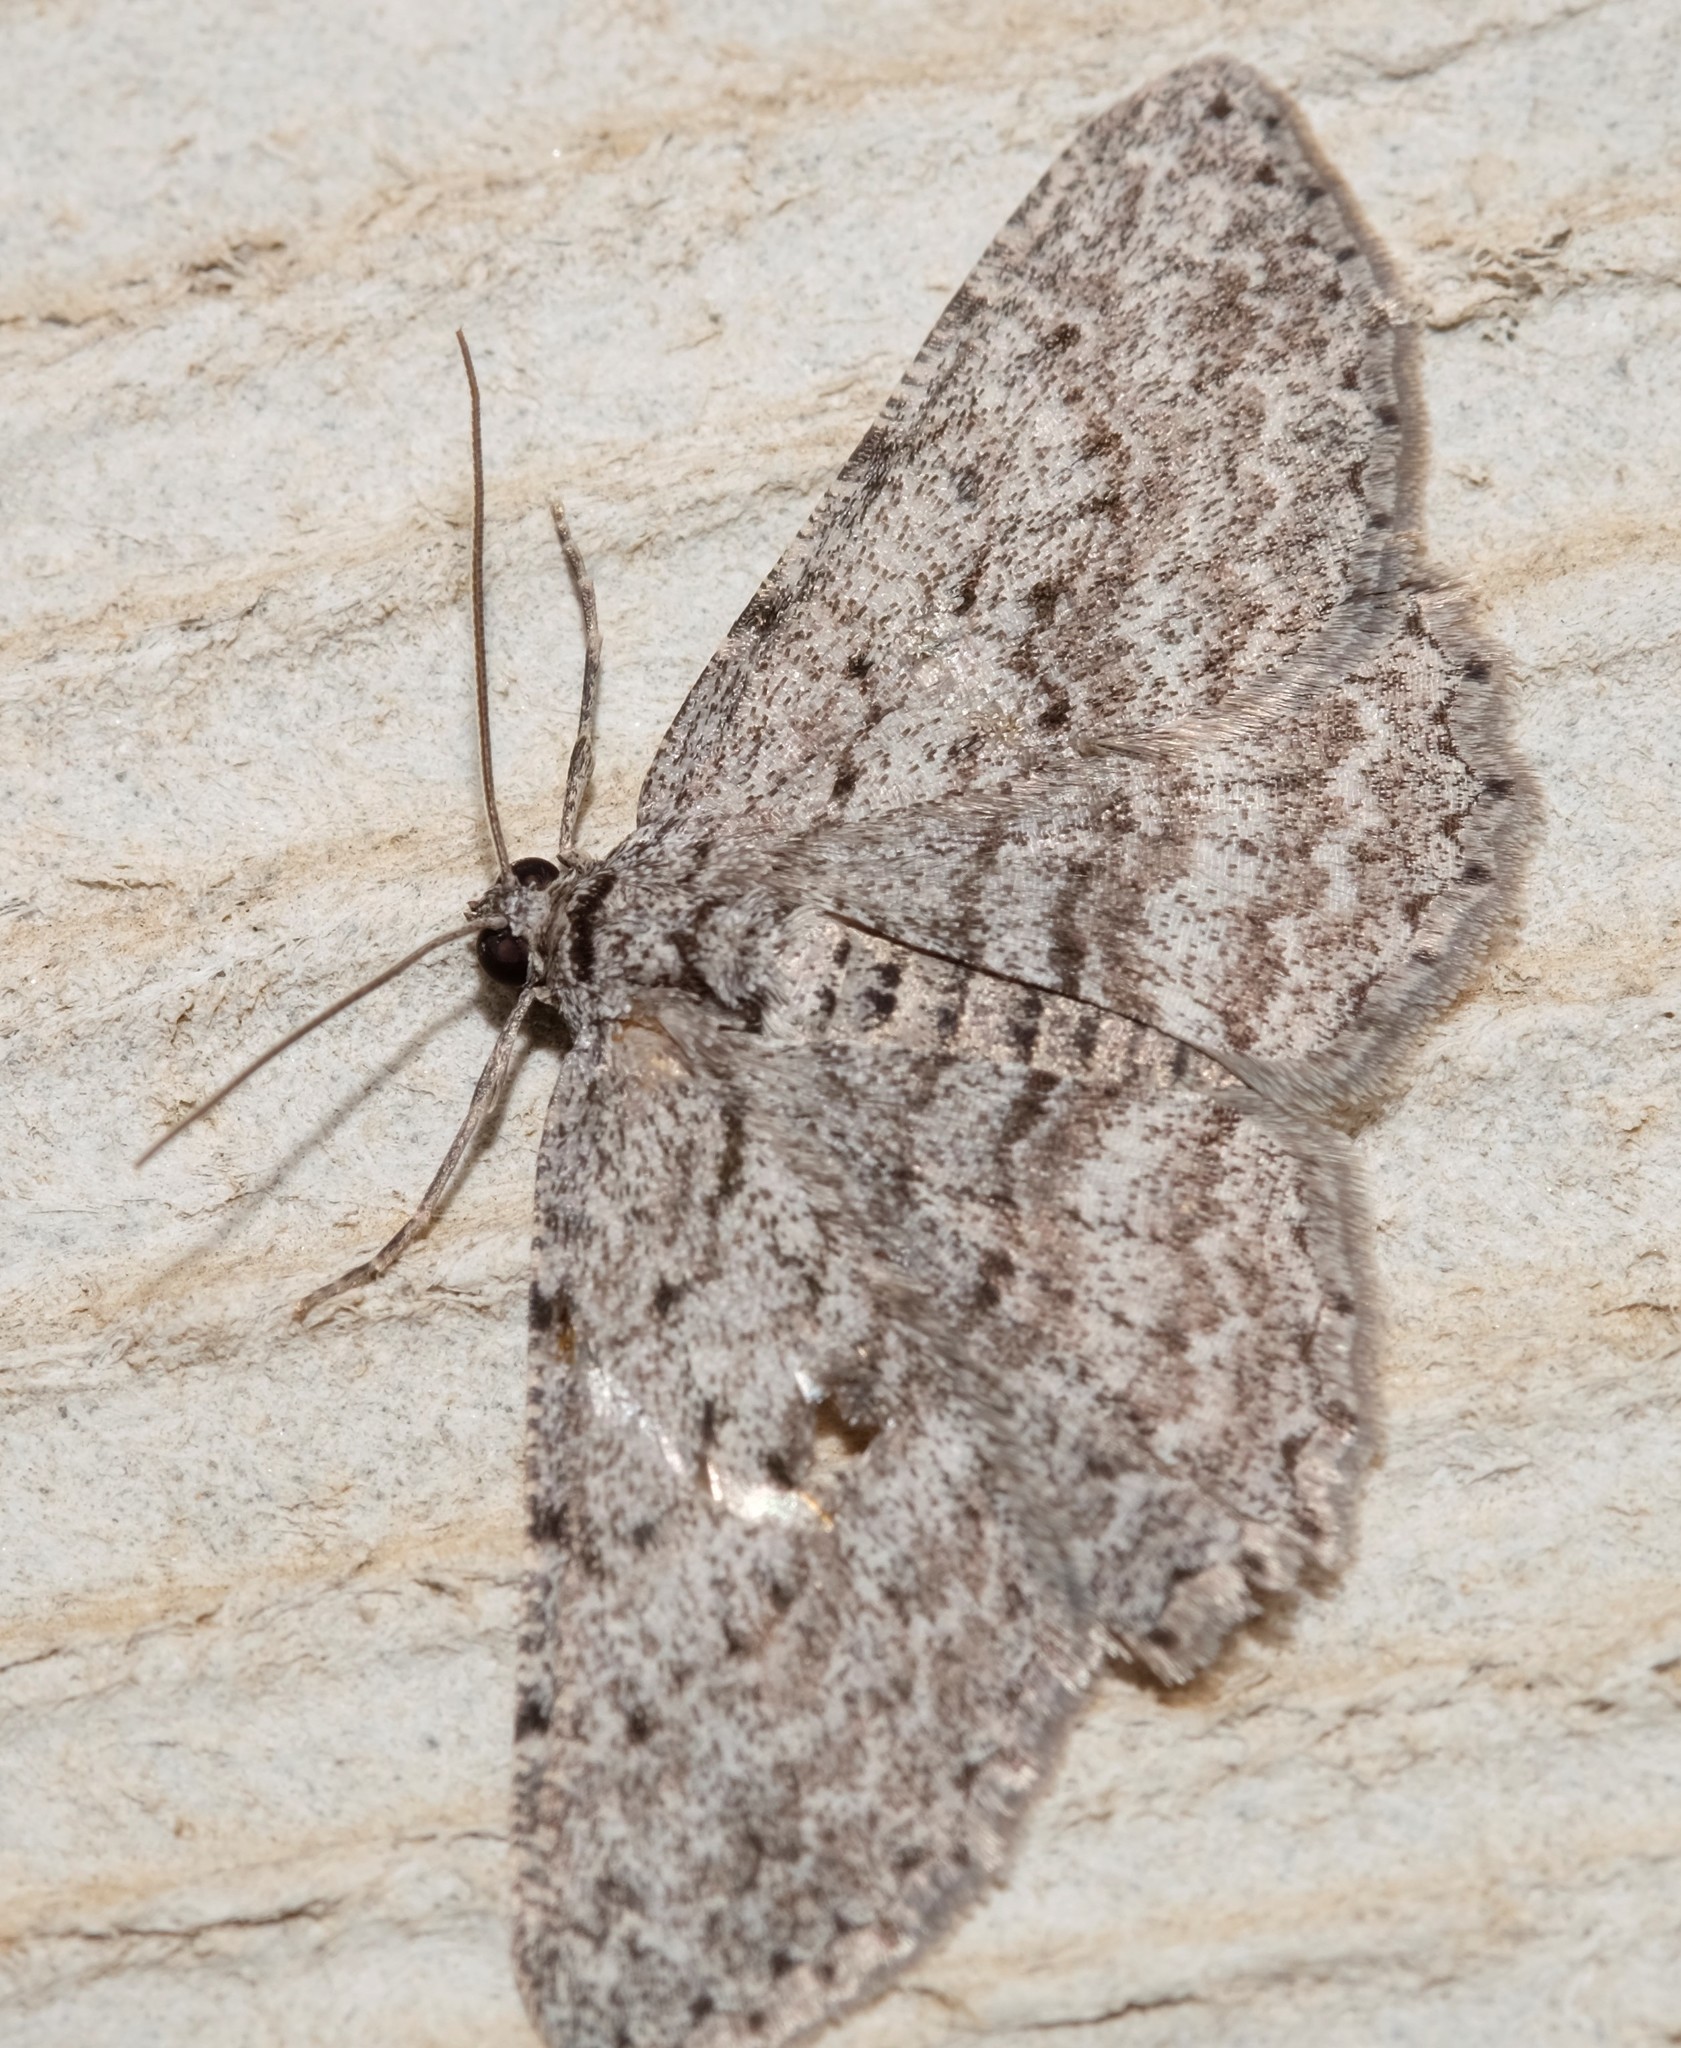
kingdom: Animalia
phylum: Arthropoda
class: Insecta
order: Lepidoptera
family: Geometridae
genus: Psilosticha
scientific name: Psilosticha absorpta
